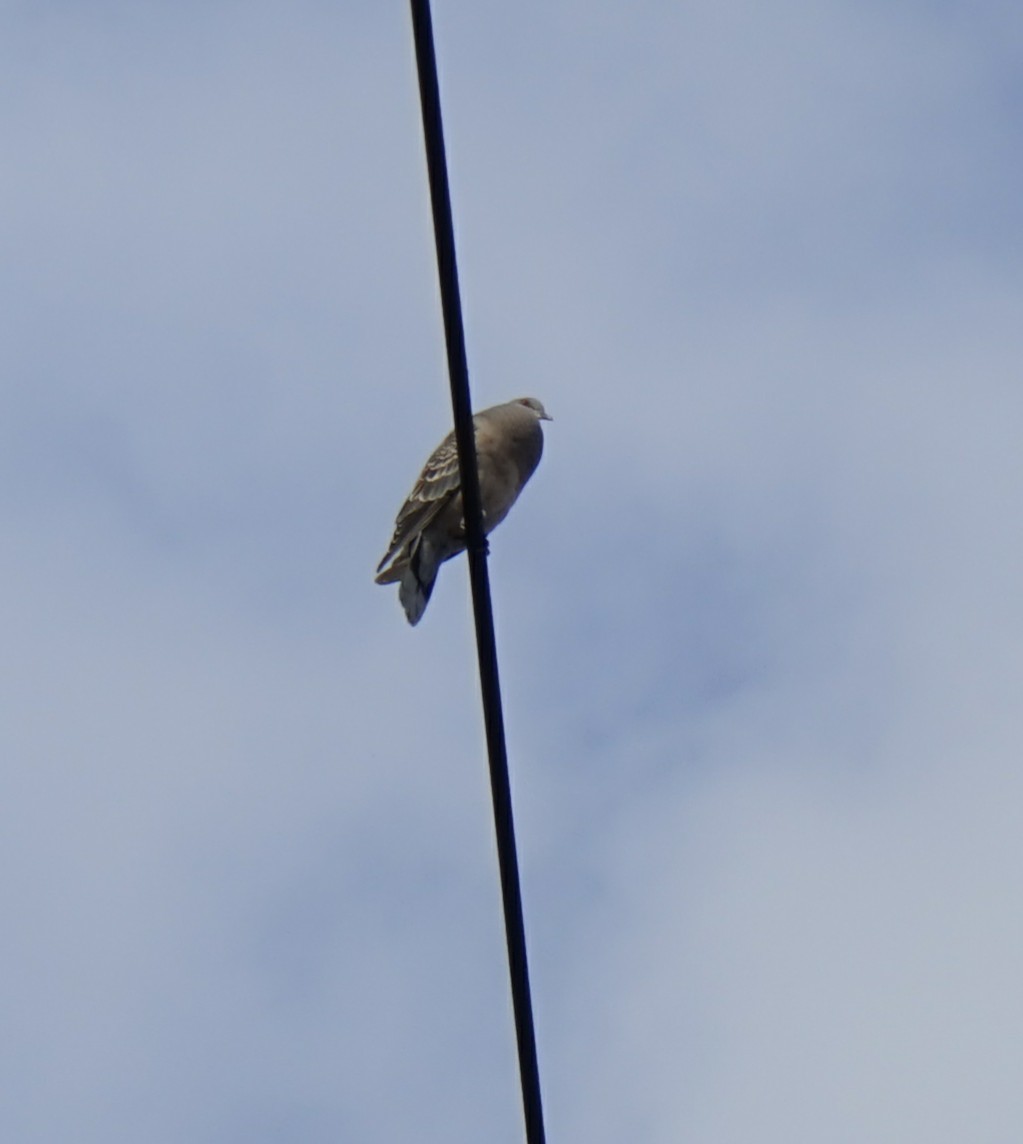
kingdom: Animalia
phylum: Chordata
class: Aves
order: Columbiformes
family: Columbidae
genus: Streptopelia
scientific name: Streptopelia orientalis
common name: Oriental turtle dove
